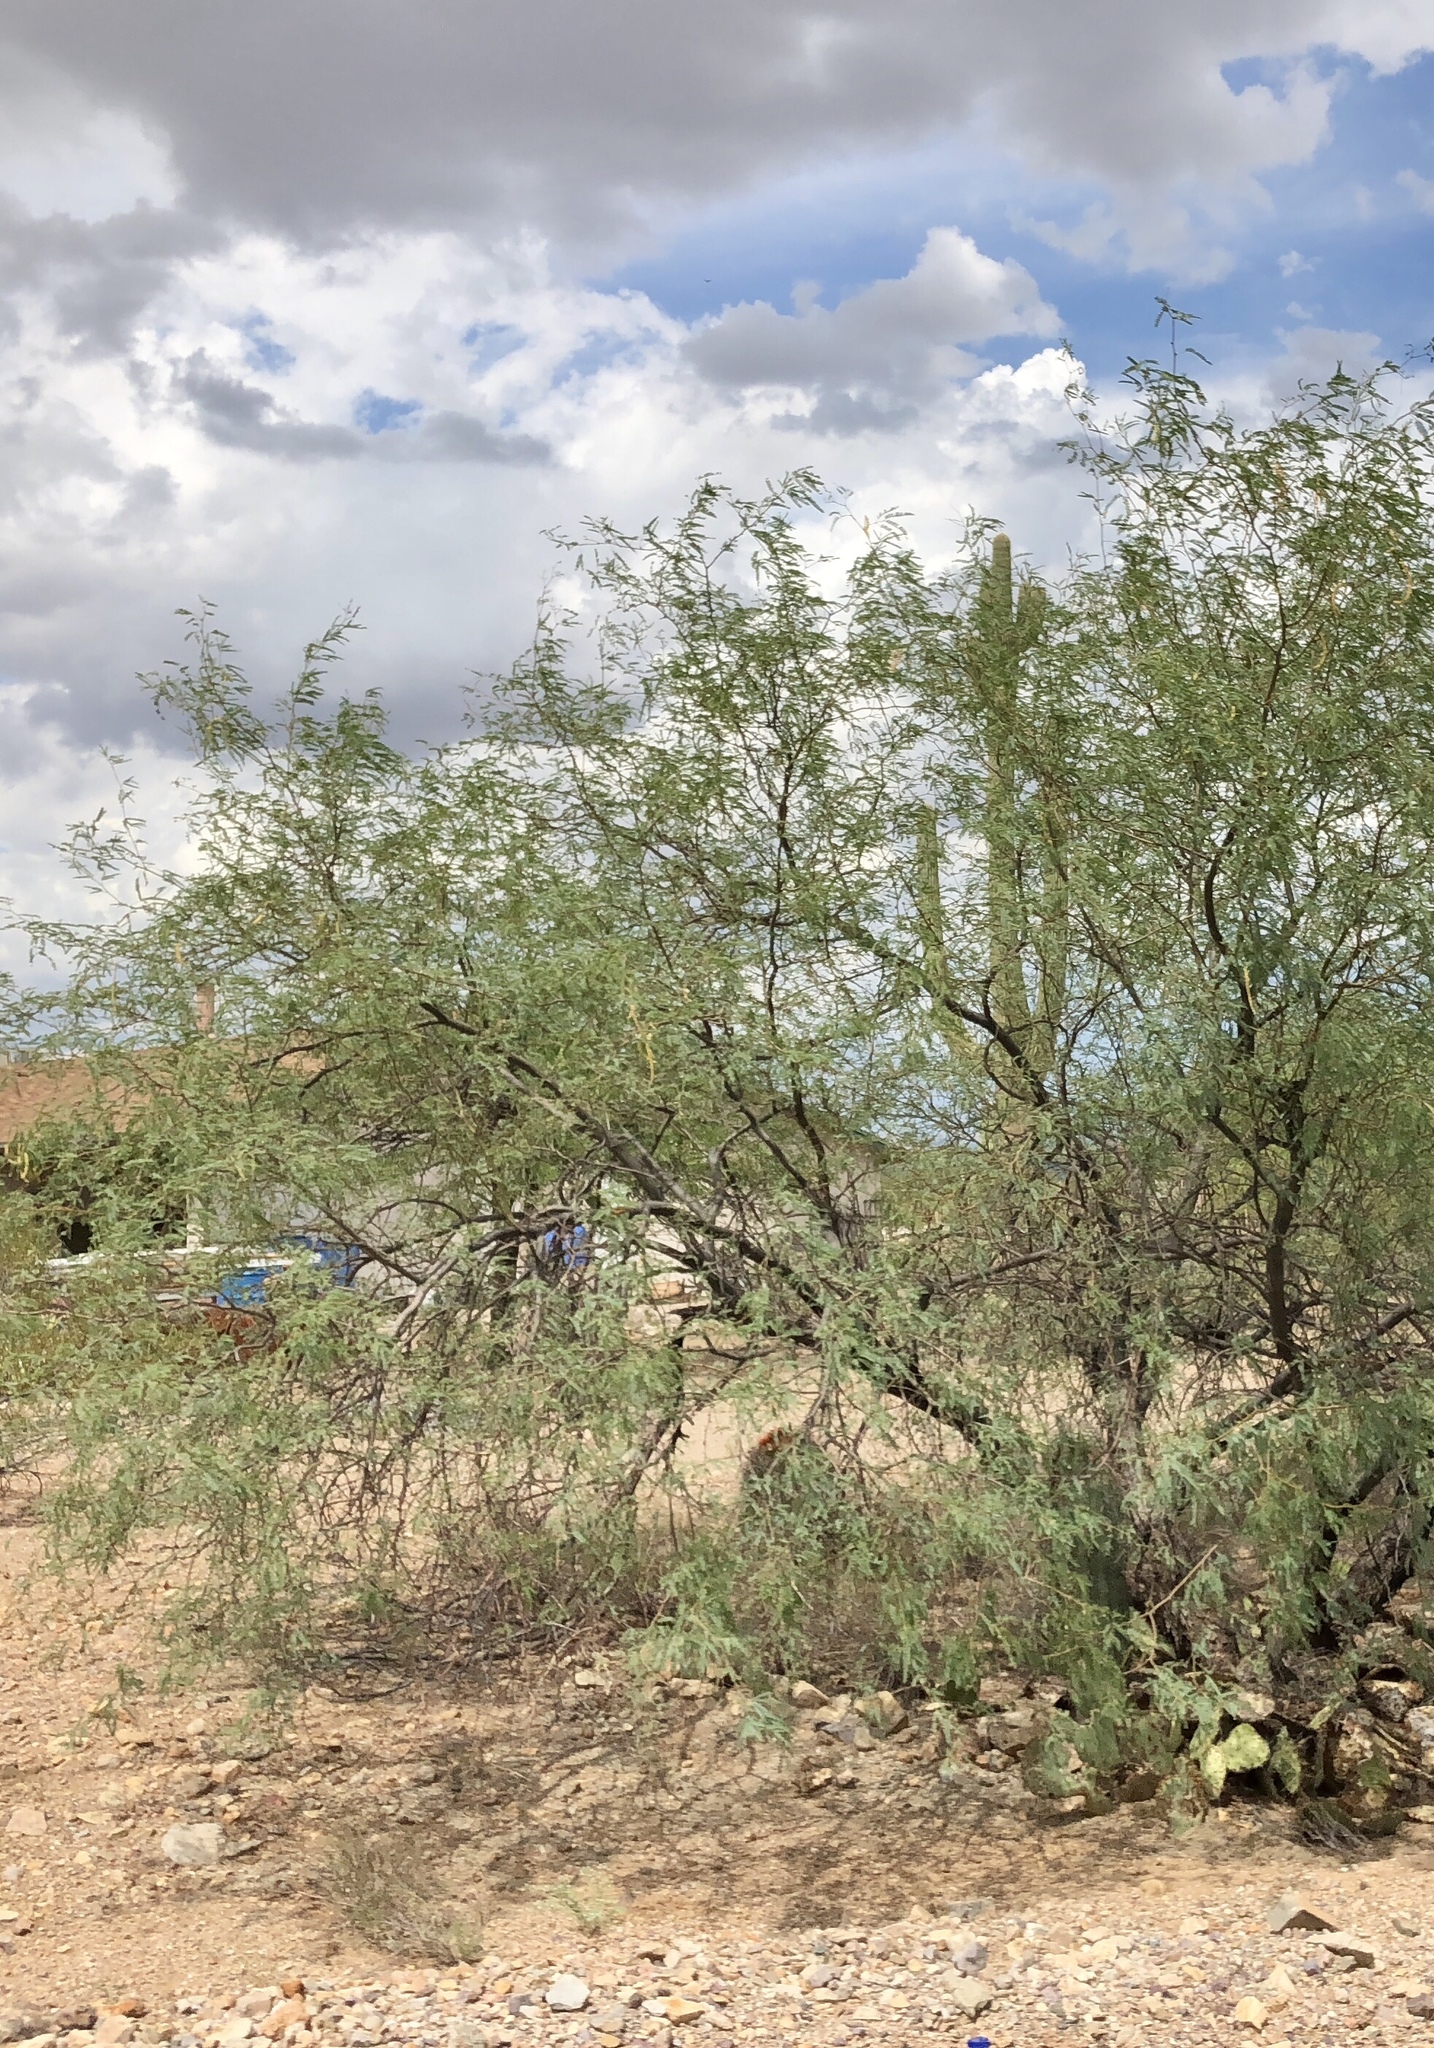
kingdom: Plantae
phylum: Tracheophyta
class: Magnoliopsida
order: Fabales
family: Fabaceae
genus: Prosopis
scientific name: Prosopis velutina
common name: Velvet mesquite
